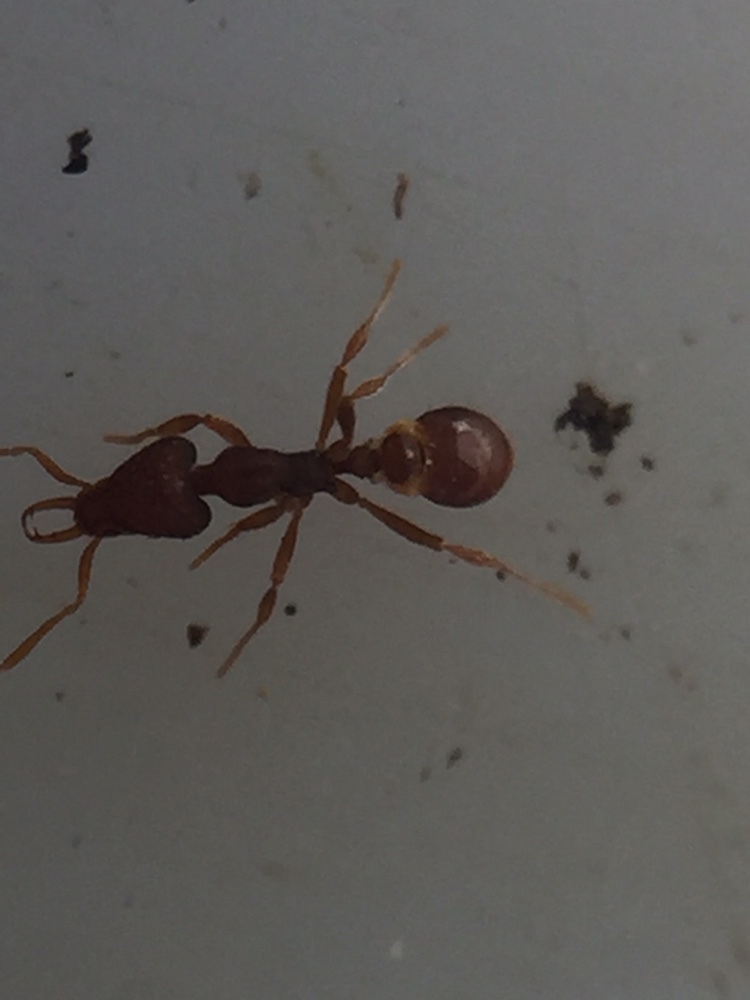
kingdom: Animalia
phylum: Arthropoda
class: Insecta
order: Hymenoptera
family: Formicidae
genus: Strumigenys
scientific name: Strumigenys perplexa
